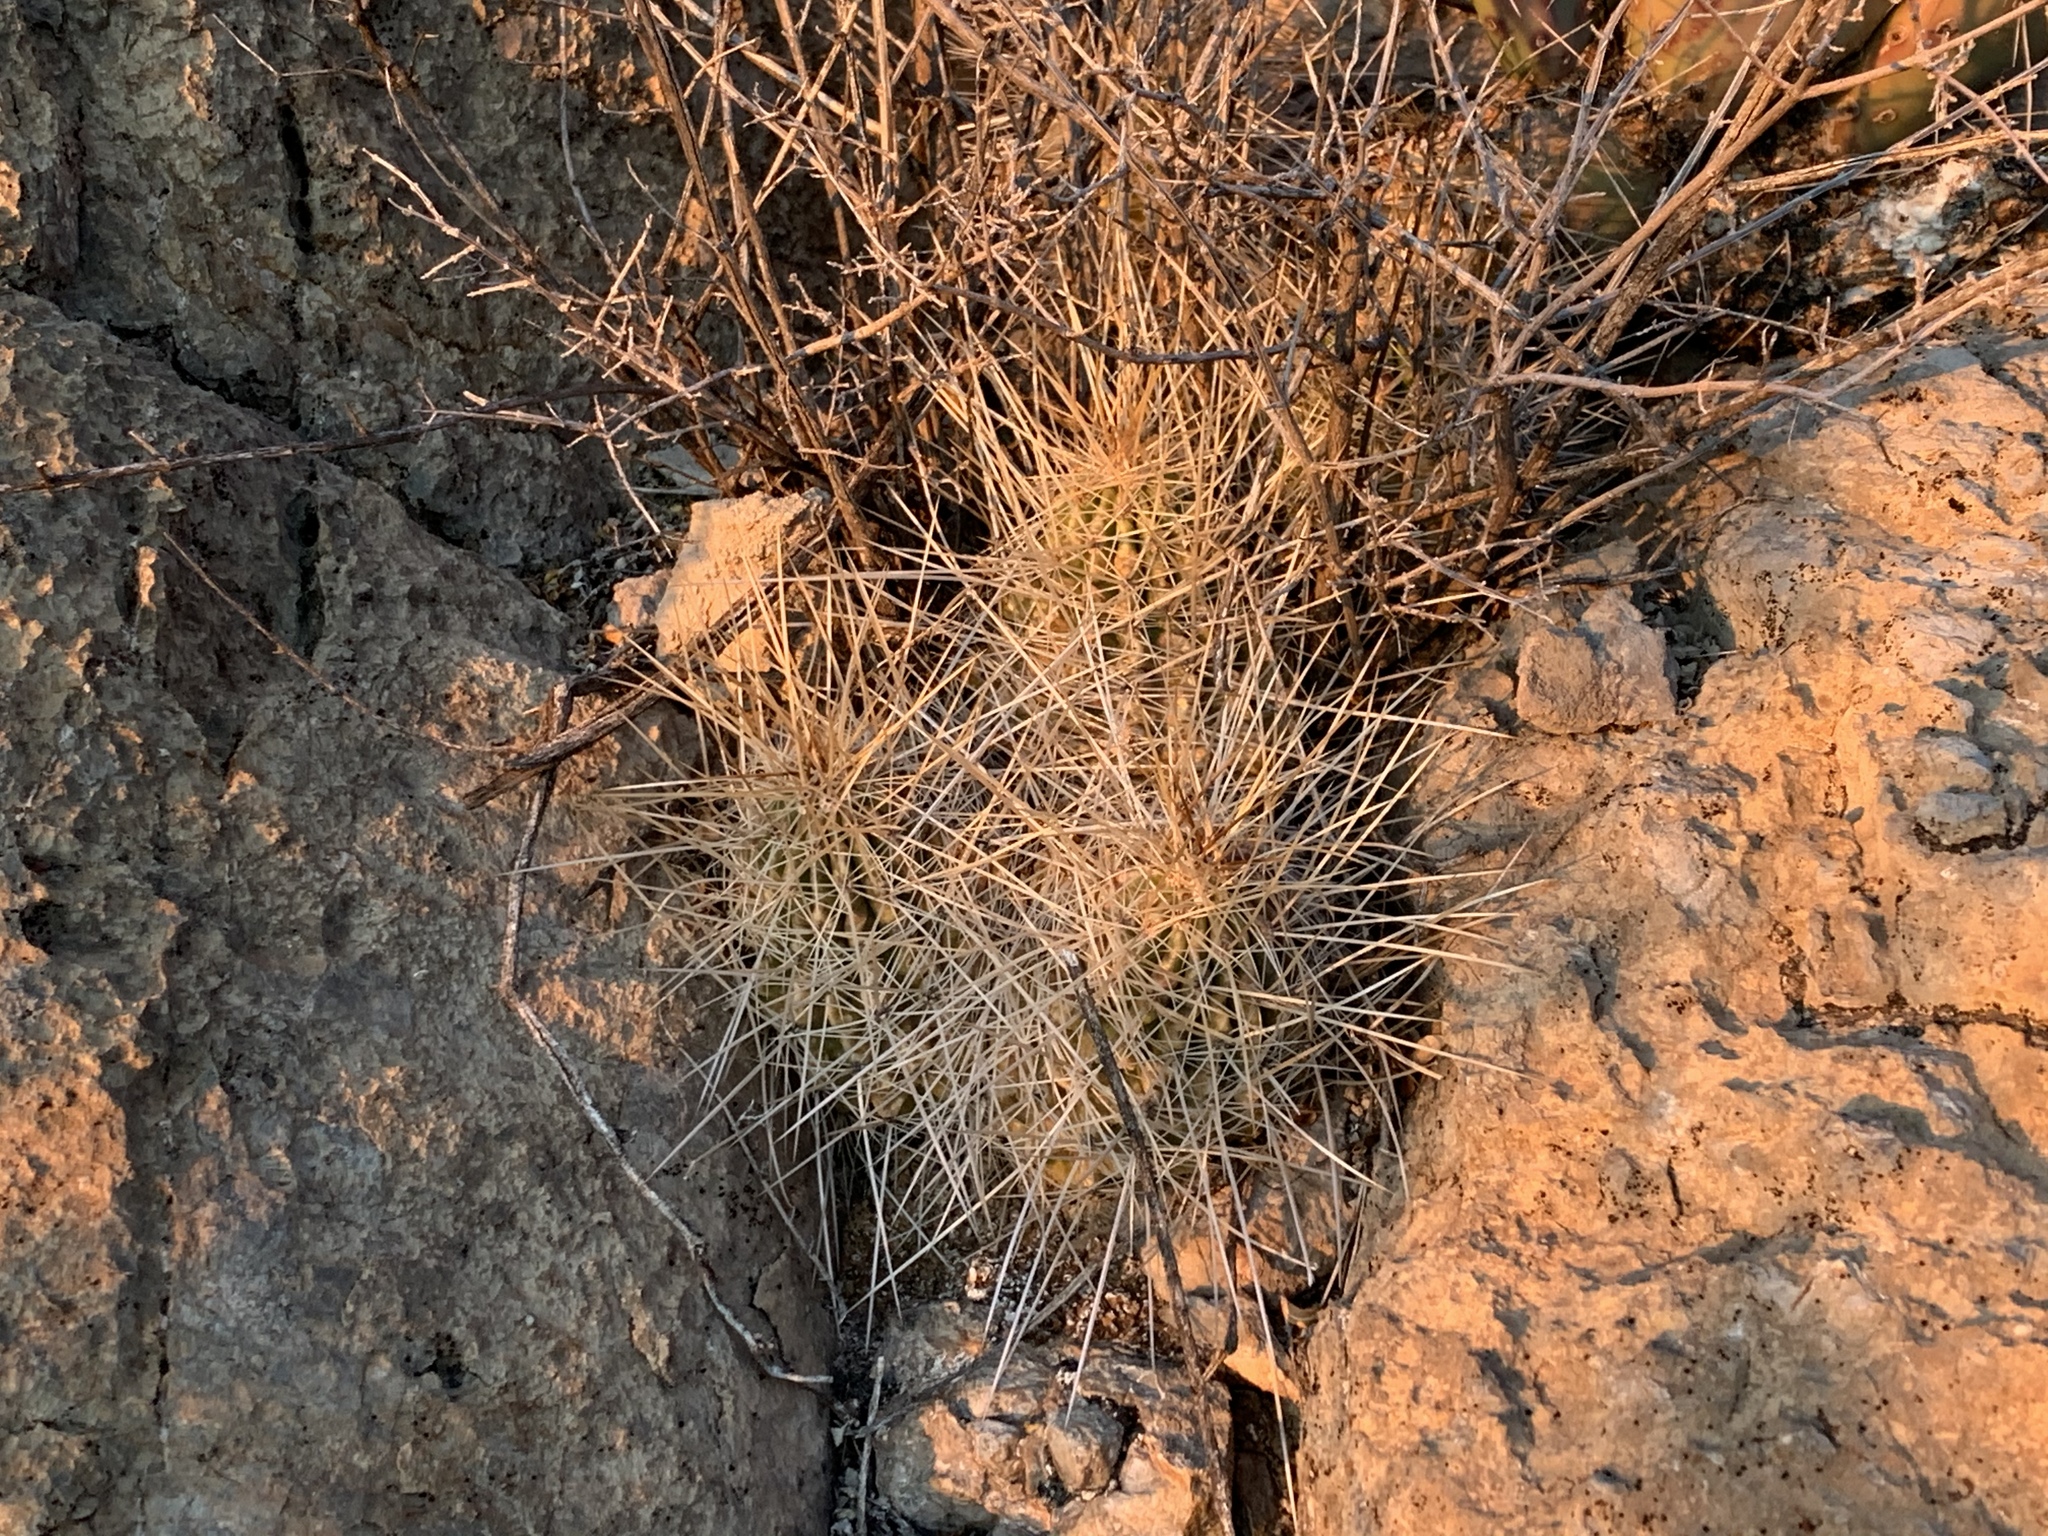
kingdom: Plantae
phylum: Tracheophyta
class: Magnoliopsida
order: Caryophyllales
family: Cactaceae
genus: Echinocereus
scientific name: Echinocereus stramineus
